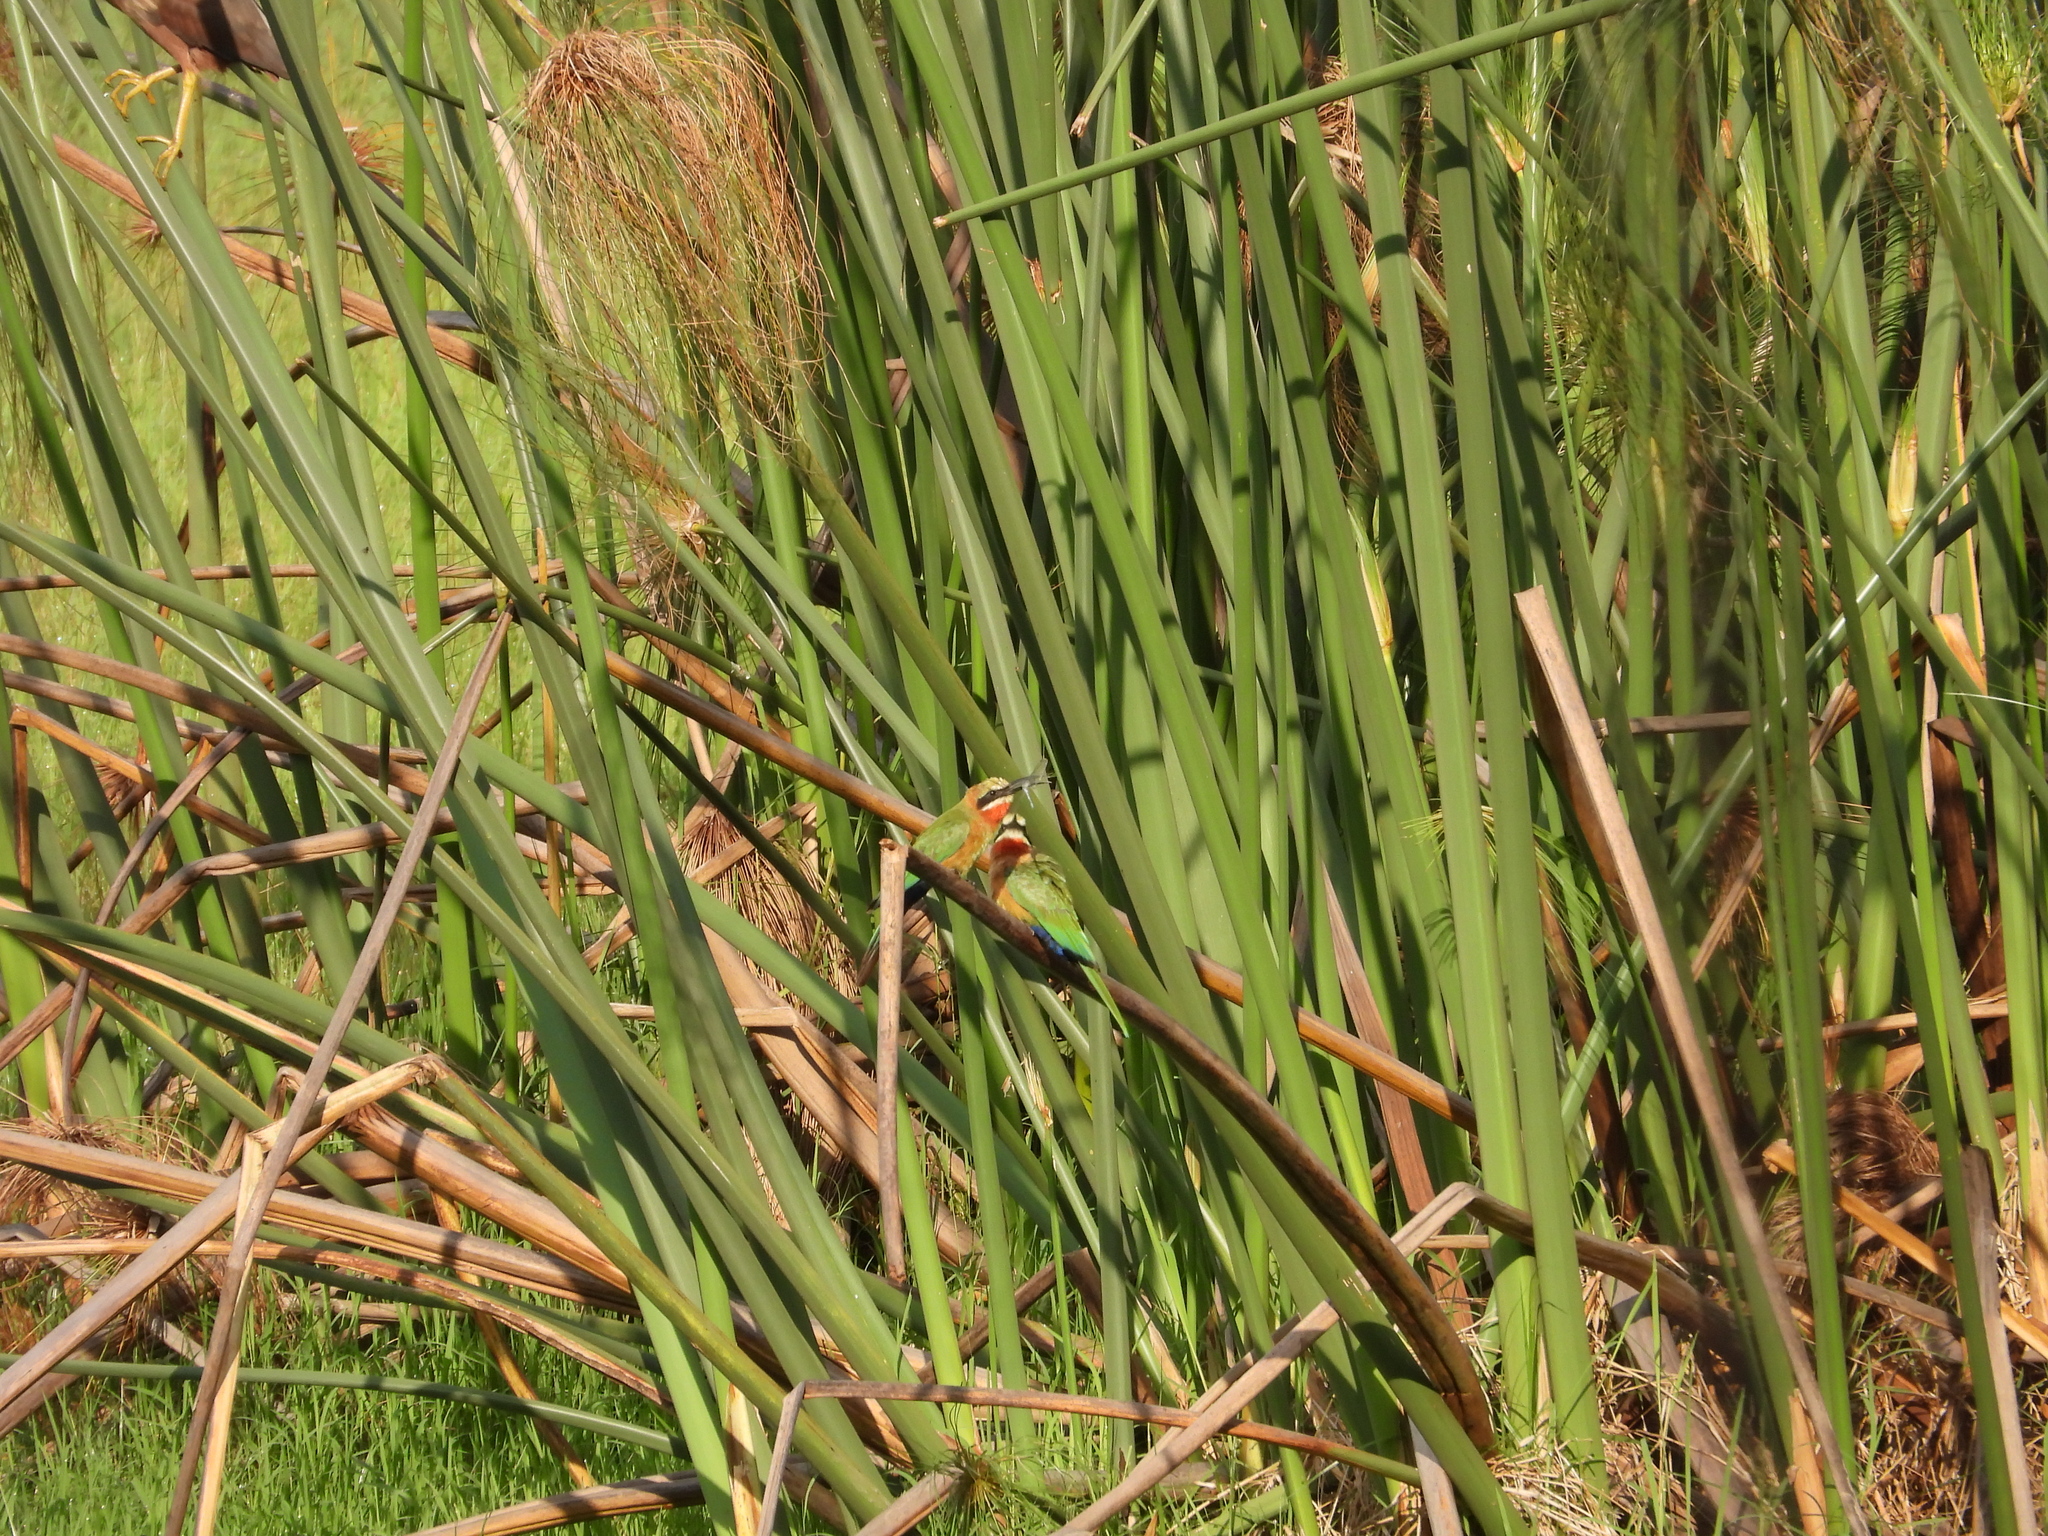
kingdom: Animalia
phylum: Chordata
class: Aves
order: Coraciiformes
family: Meropidae
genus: Merops
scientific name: Merops bullockoides
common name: White-fronted bee-eater
